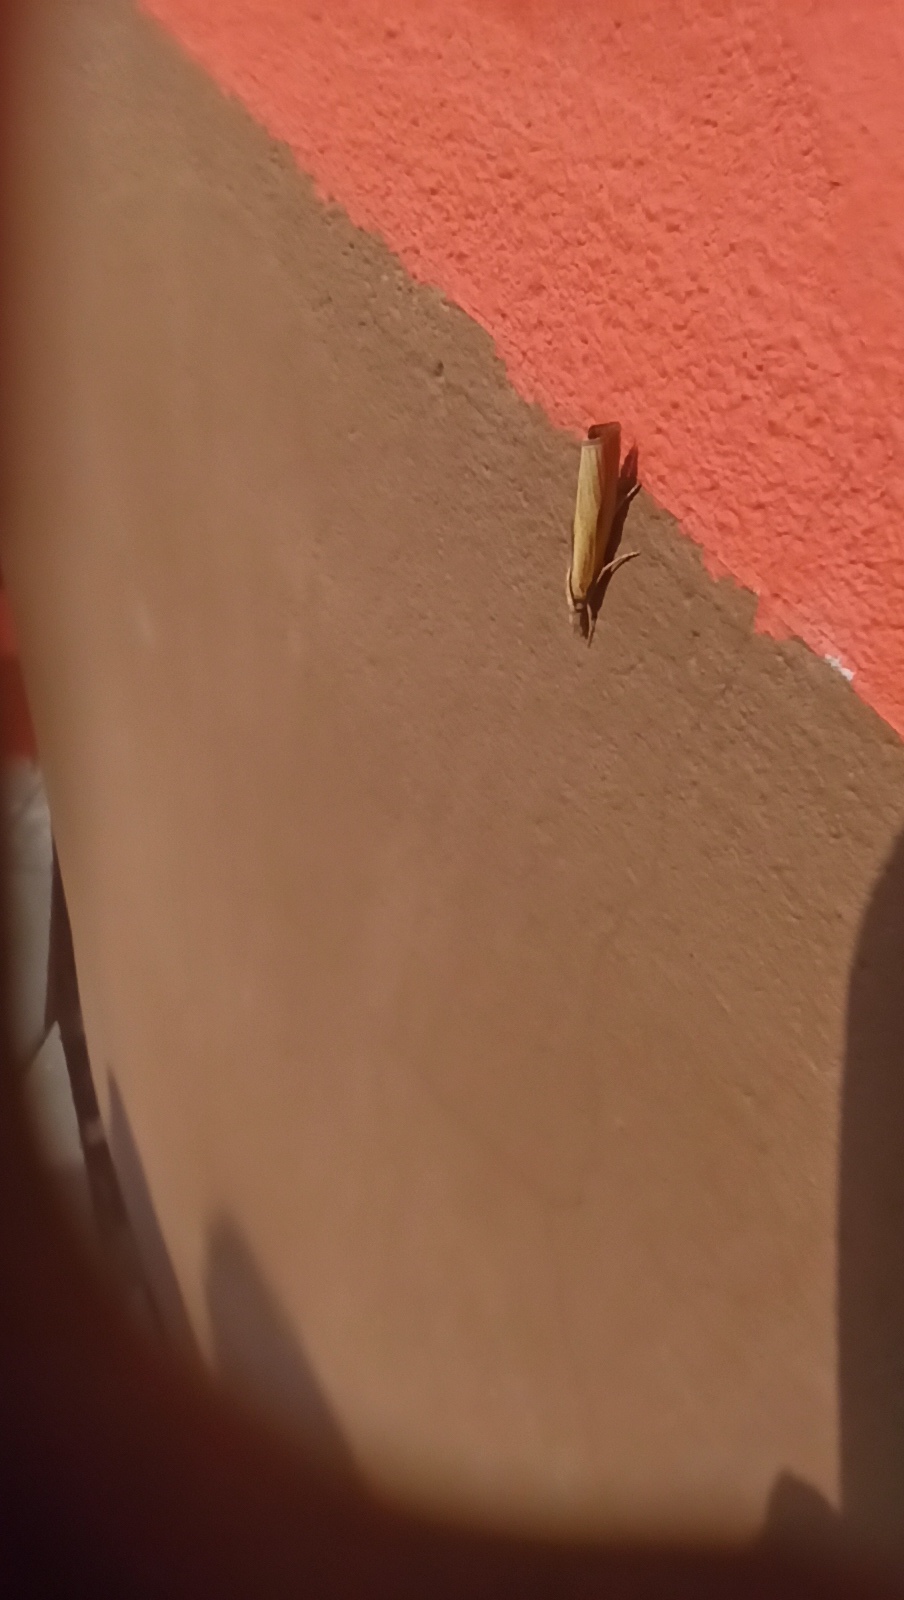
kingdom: Animalia
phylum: Arthropoda
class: Insecta
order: Lepidoptera
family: Crambidae
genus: Agriphila
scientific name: Agriphila tristellus
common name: Common grass-veneer
